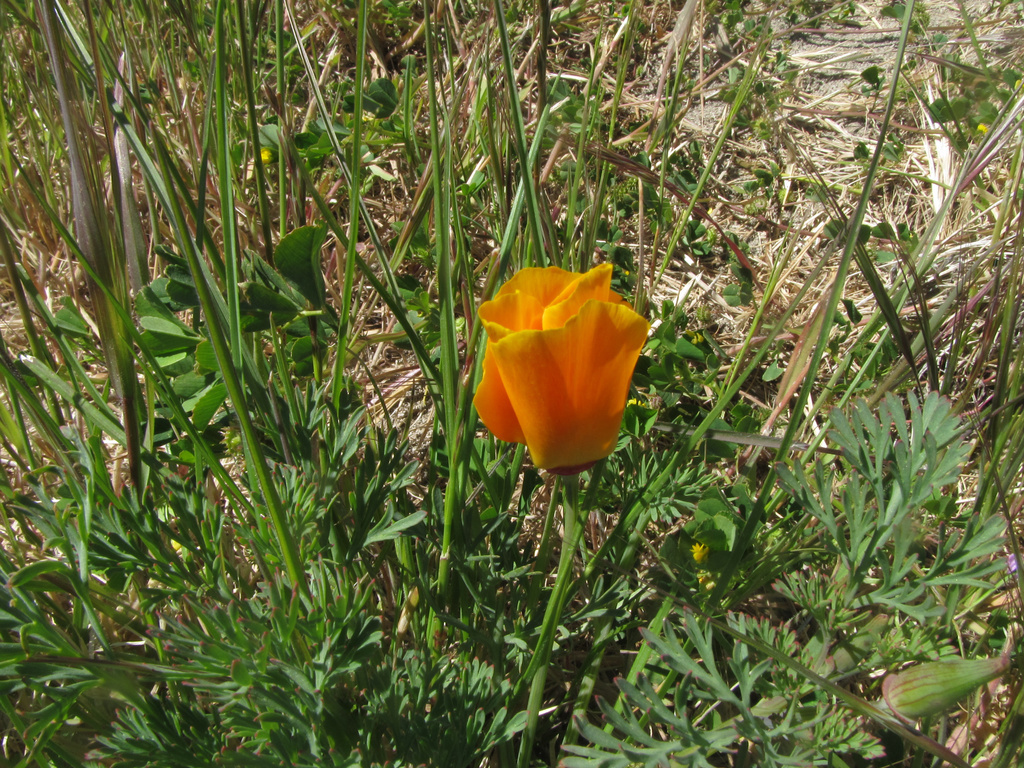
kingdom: Plantae
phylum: Tracheophyta
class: Magnoliopsida
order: Ranunculales
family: Papaveraceae
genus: Eschscholzia
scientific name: Eschscholzia californica
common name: California poppy
